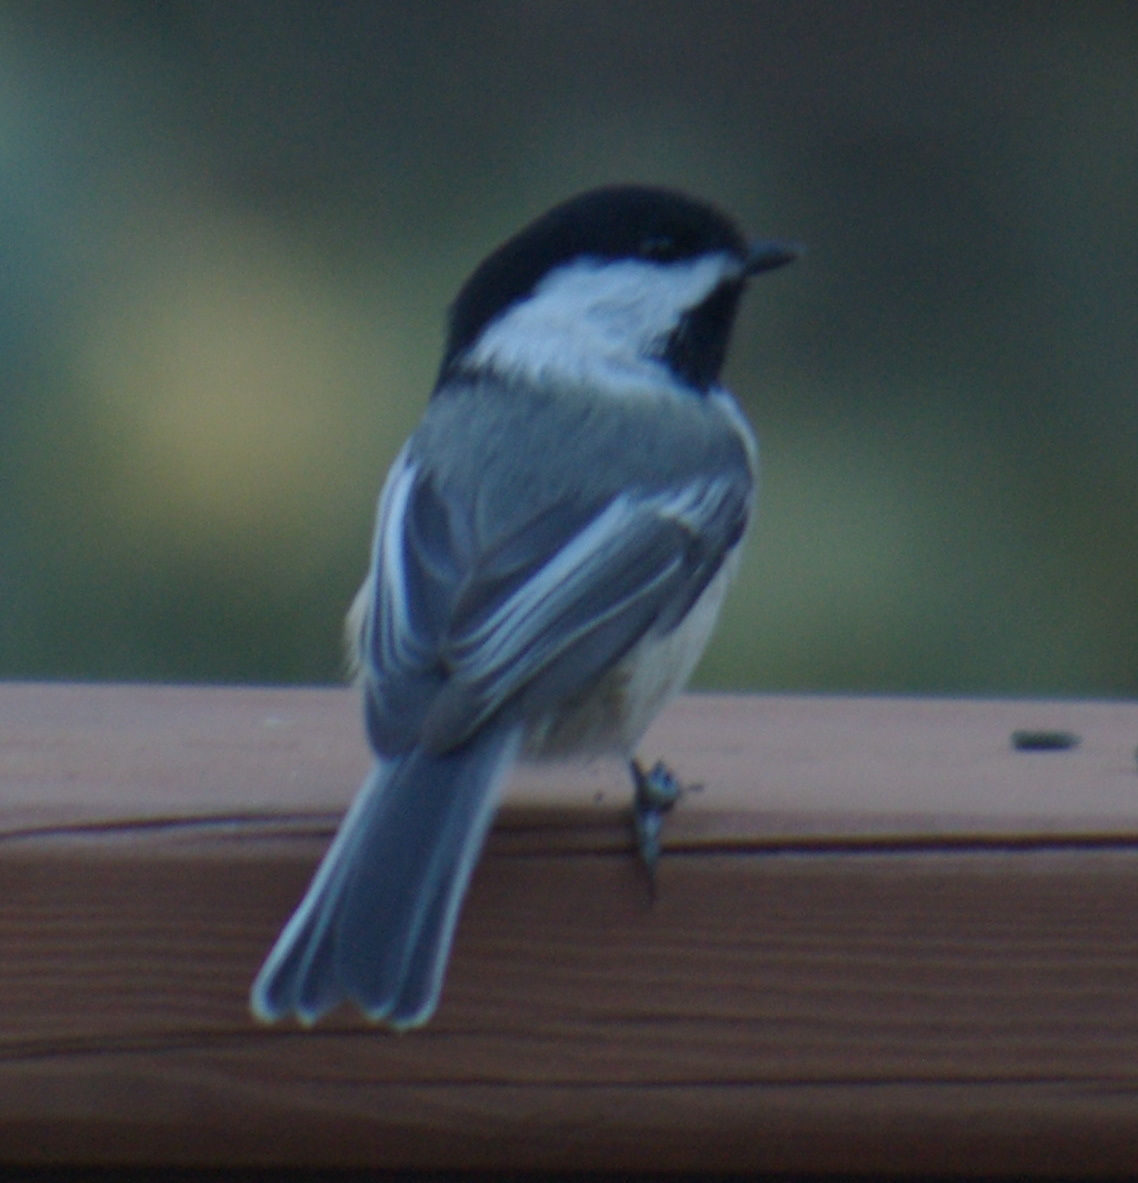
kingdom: Animalia
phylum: Chordata
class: Aves
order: Passeriformes
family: Paridae
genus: Poecile
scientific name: Poecile atricapillus
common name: Black-capped chickadee
